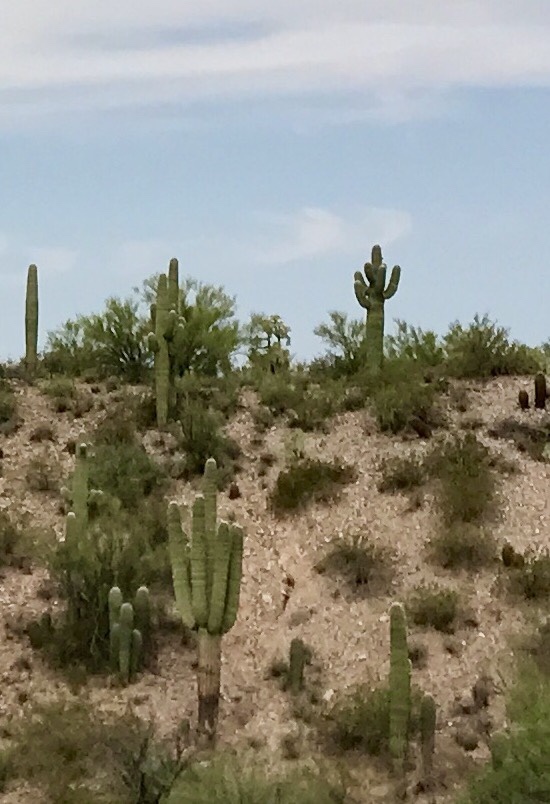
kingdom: Plantae
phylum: Tracheophyta
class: Magnoliopsida
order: Caryophyllales
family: Cactaceae
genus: Carnegiea
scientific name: Carnegiea gigantea
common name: Saguaro
